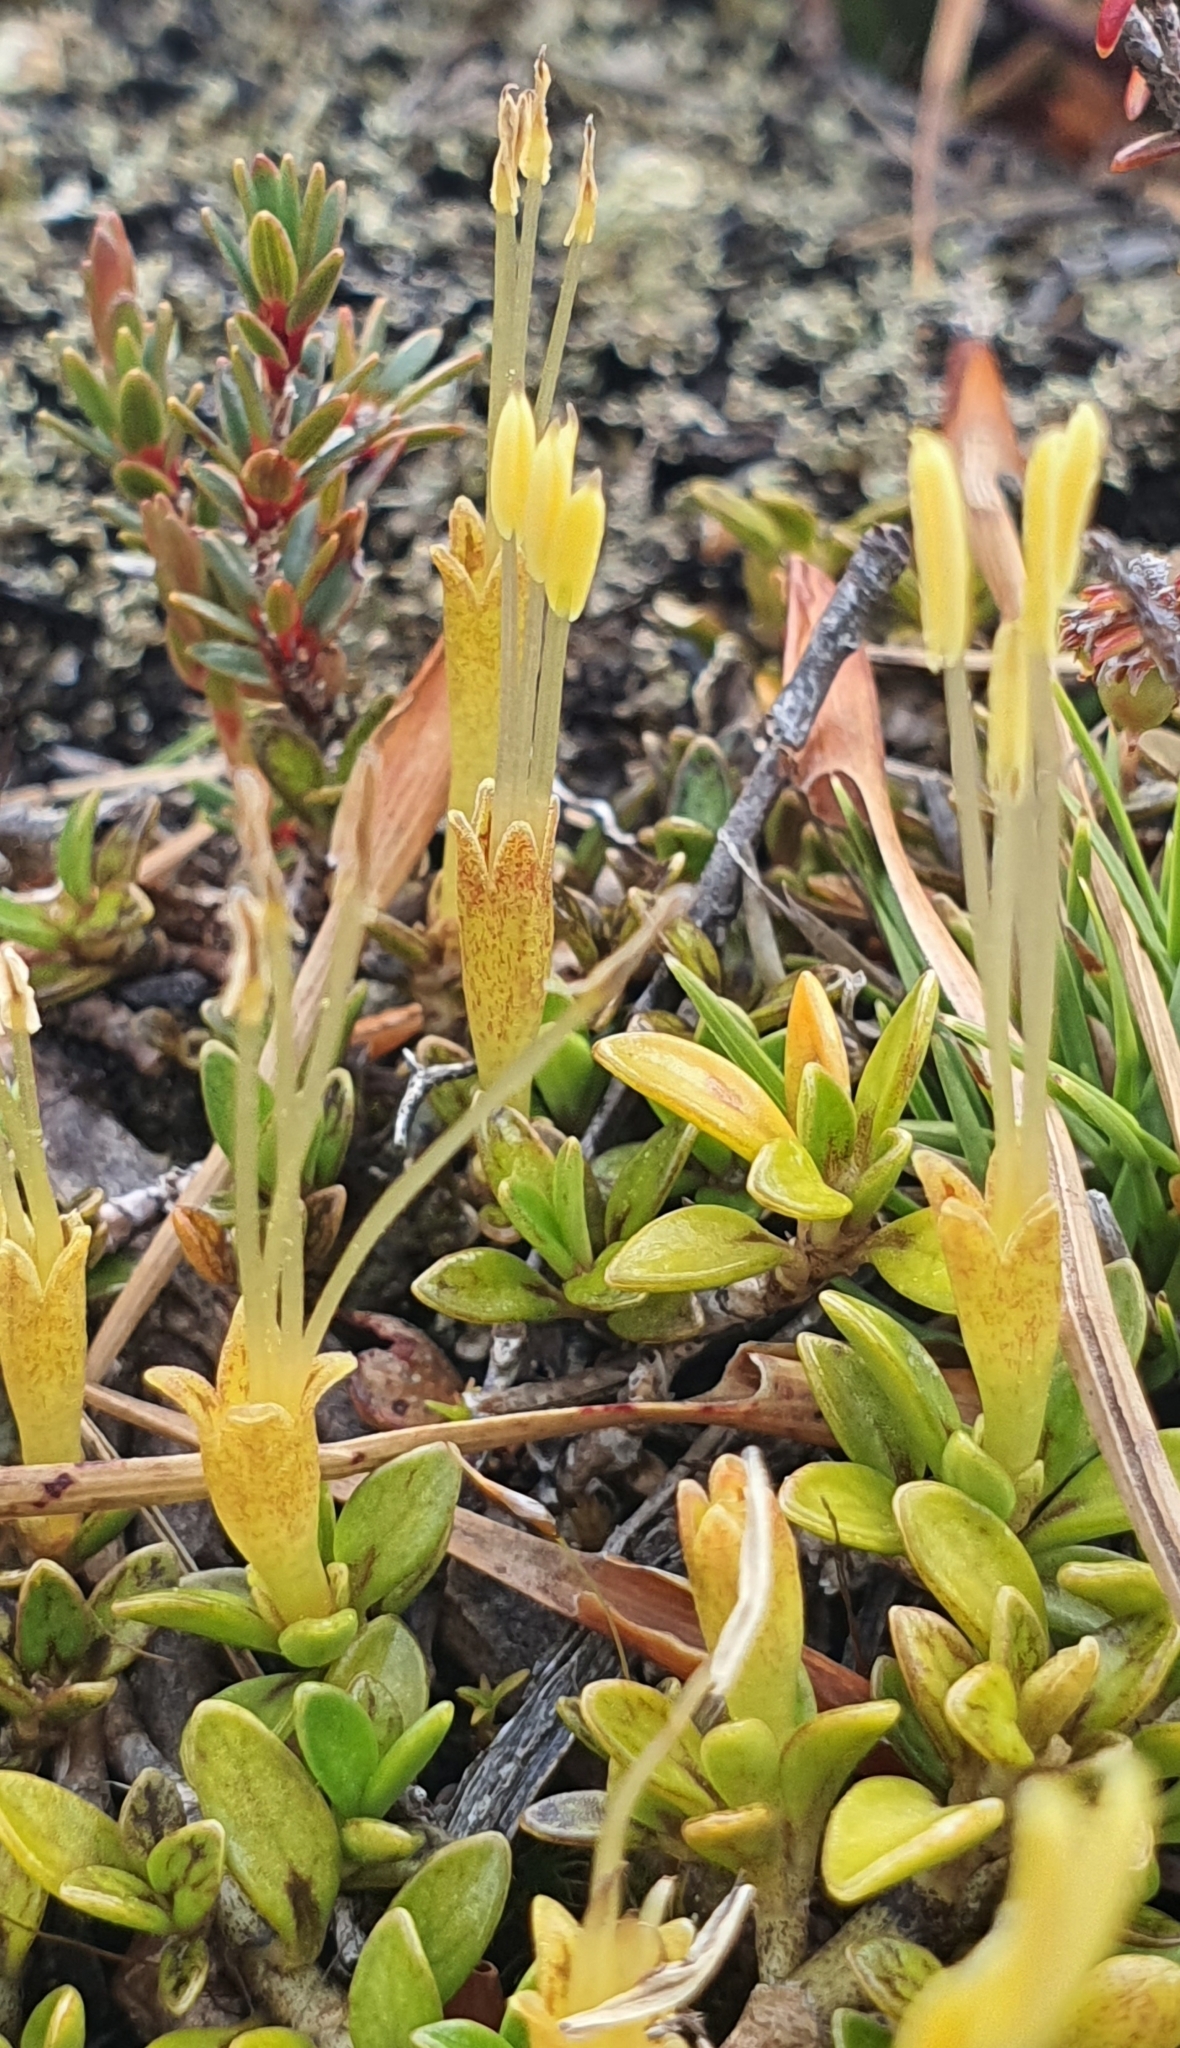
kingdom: Plantae
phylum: Tracheophyta
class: Magnoliopsida
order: Gentianales
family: Rubiaceae
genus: Coprosma
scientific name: Coprosma perpusilla
